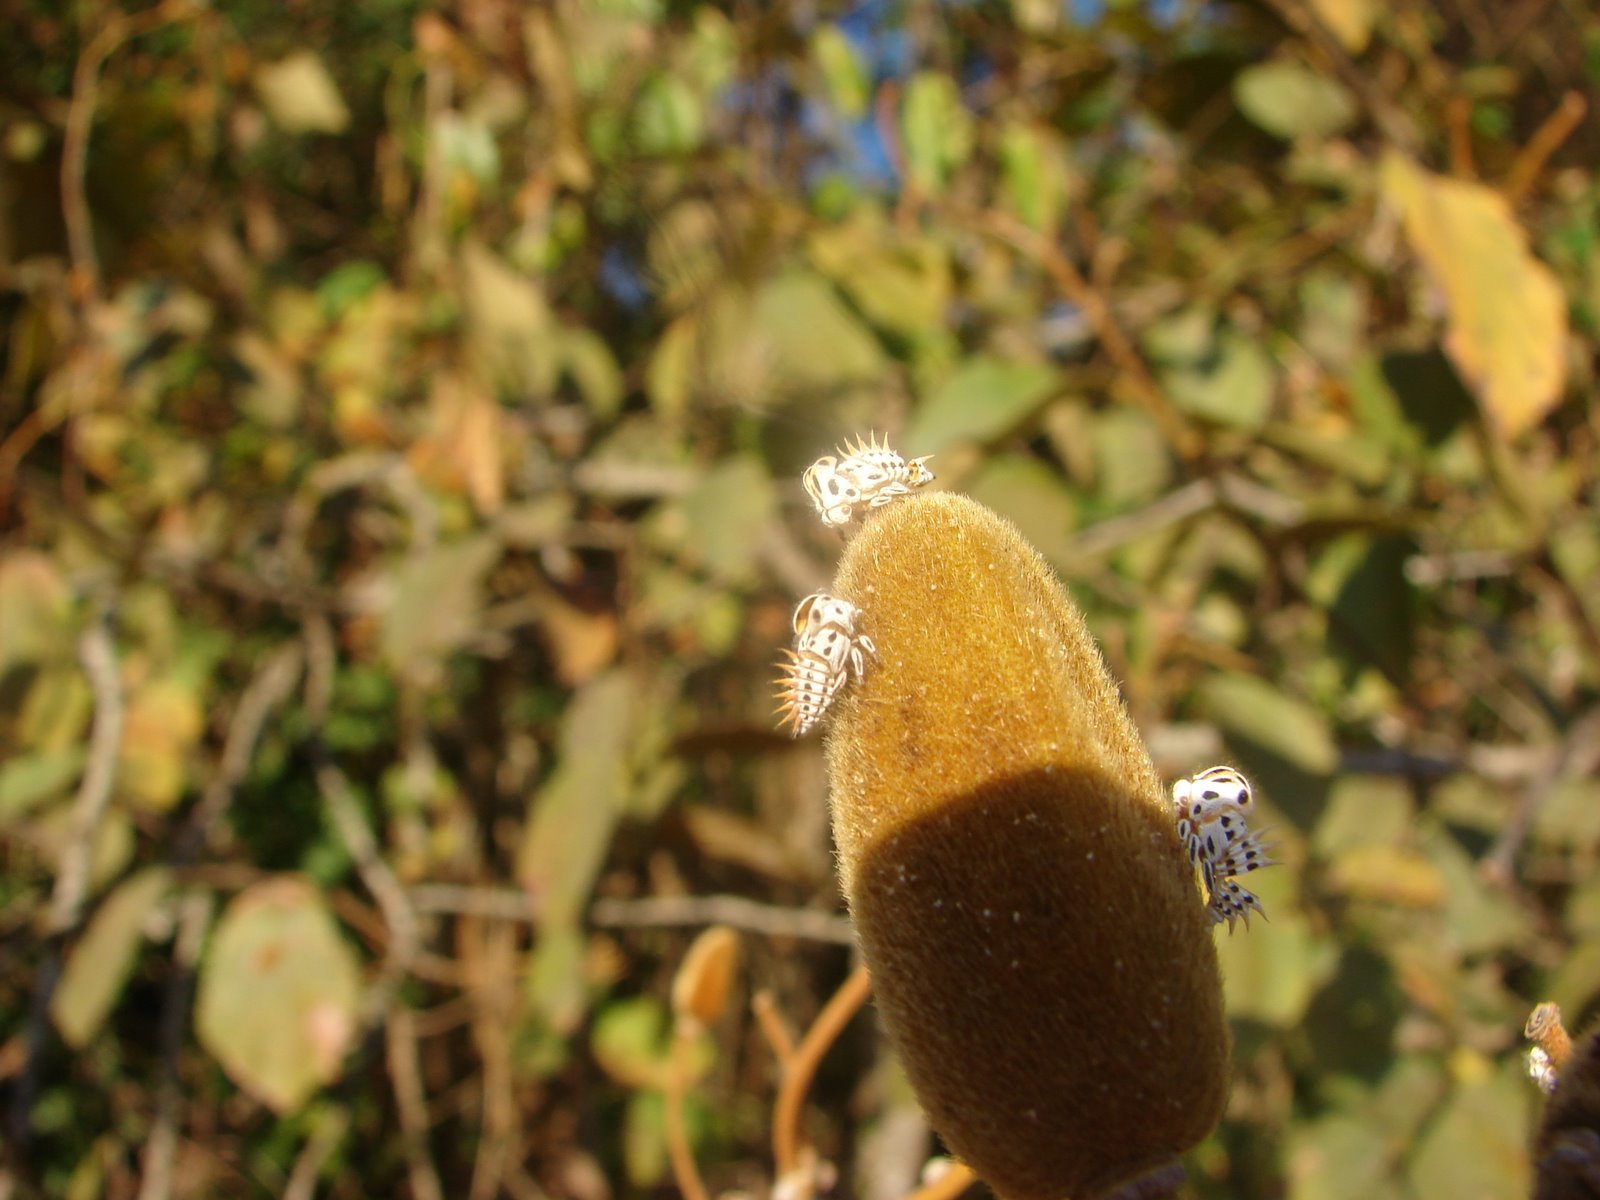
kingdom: Animalia
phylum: Arthropoda
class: Insecta
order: Hemiptera
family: Membracidae
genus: Membracis
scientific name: Membracis foliatafasciata
